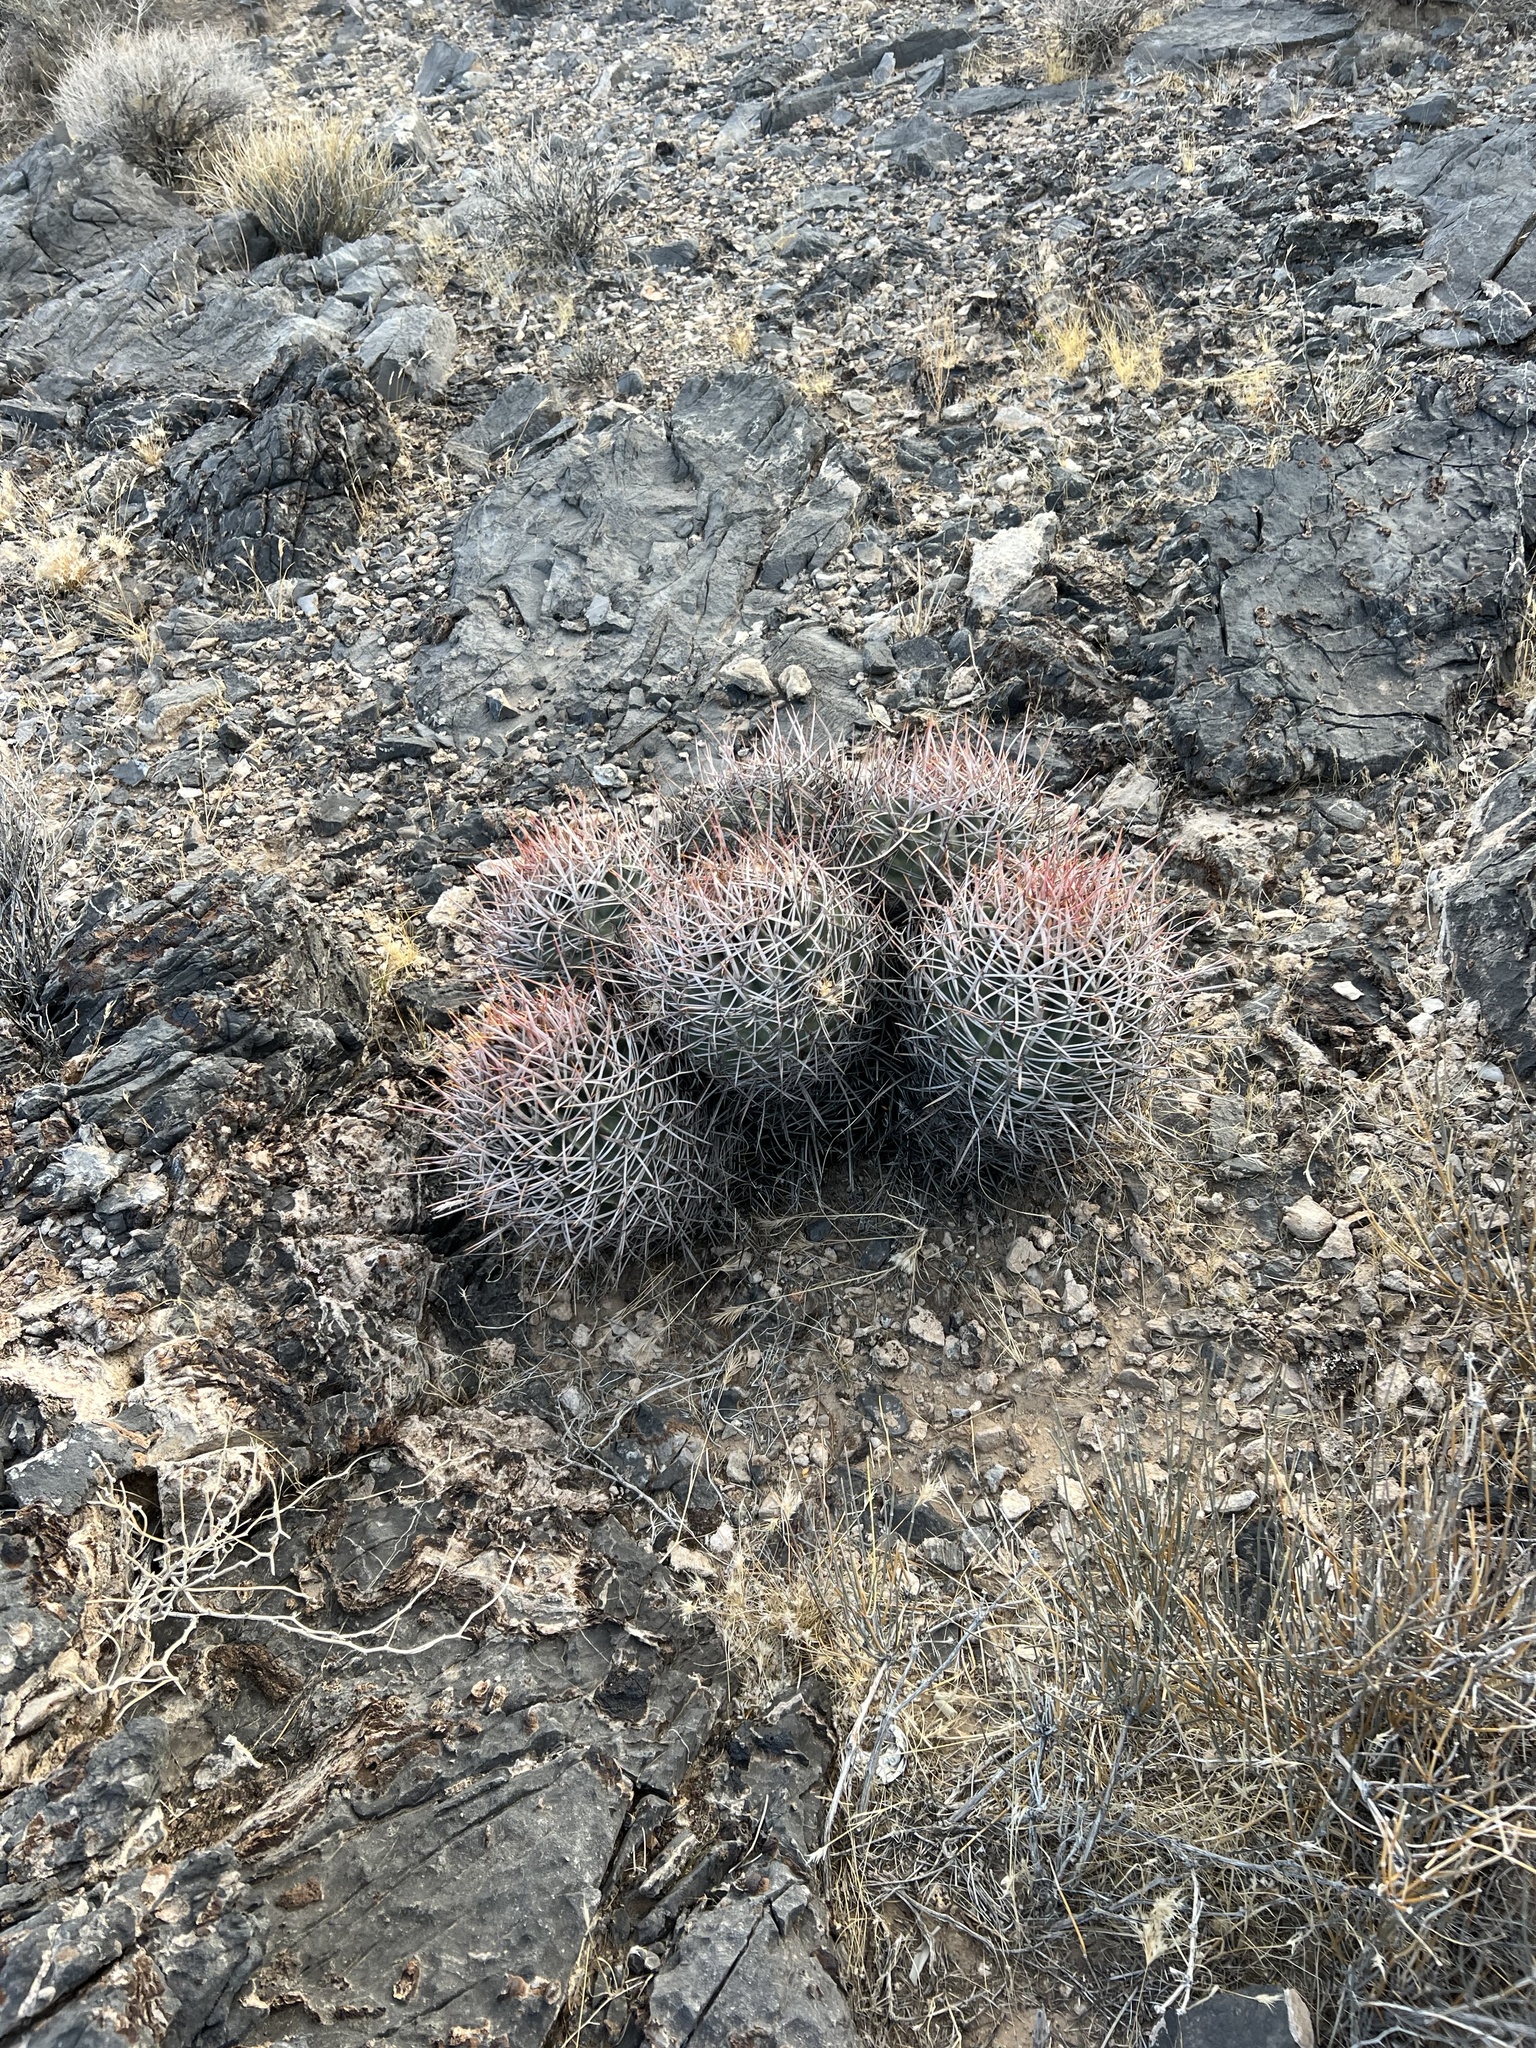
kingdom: Plantae
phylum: Tracheophyta
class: Magnoliopsida
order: Caryophyllales
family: Cactaceae
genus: Echinocactus
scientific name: Echinocactus polycephalus
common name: Cottontop cactus
